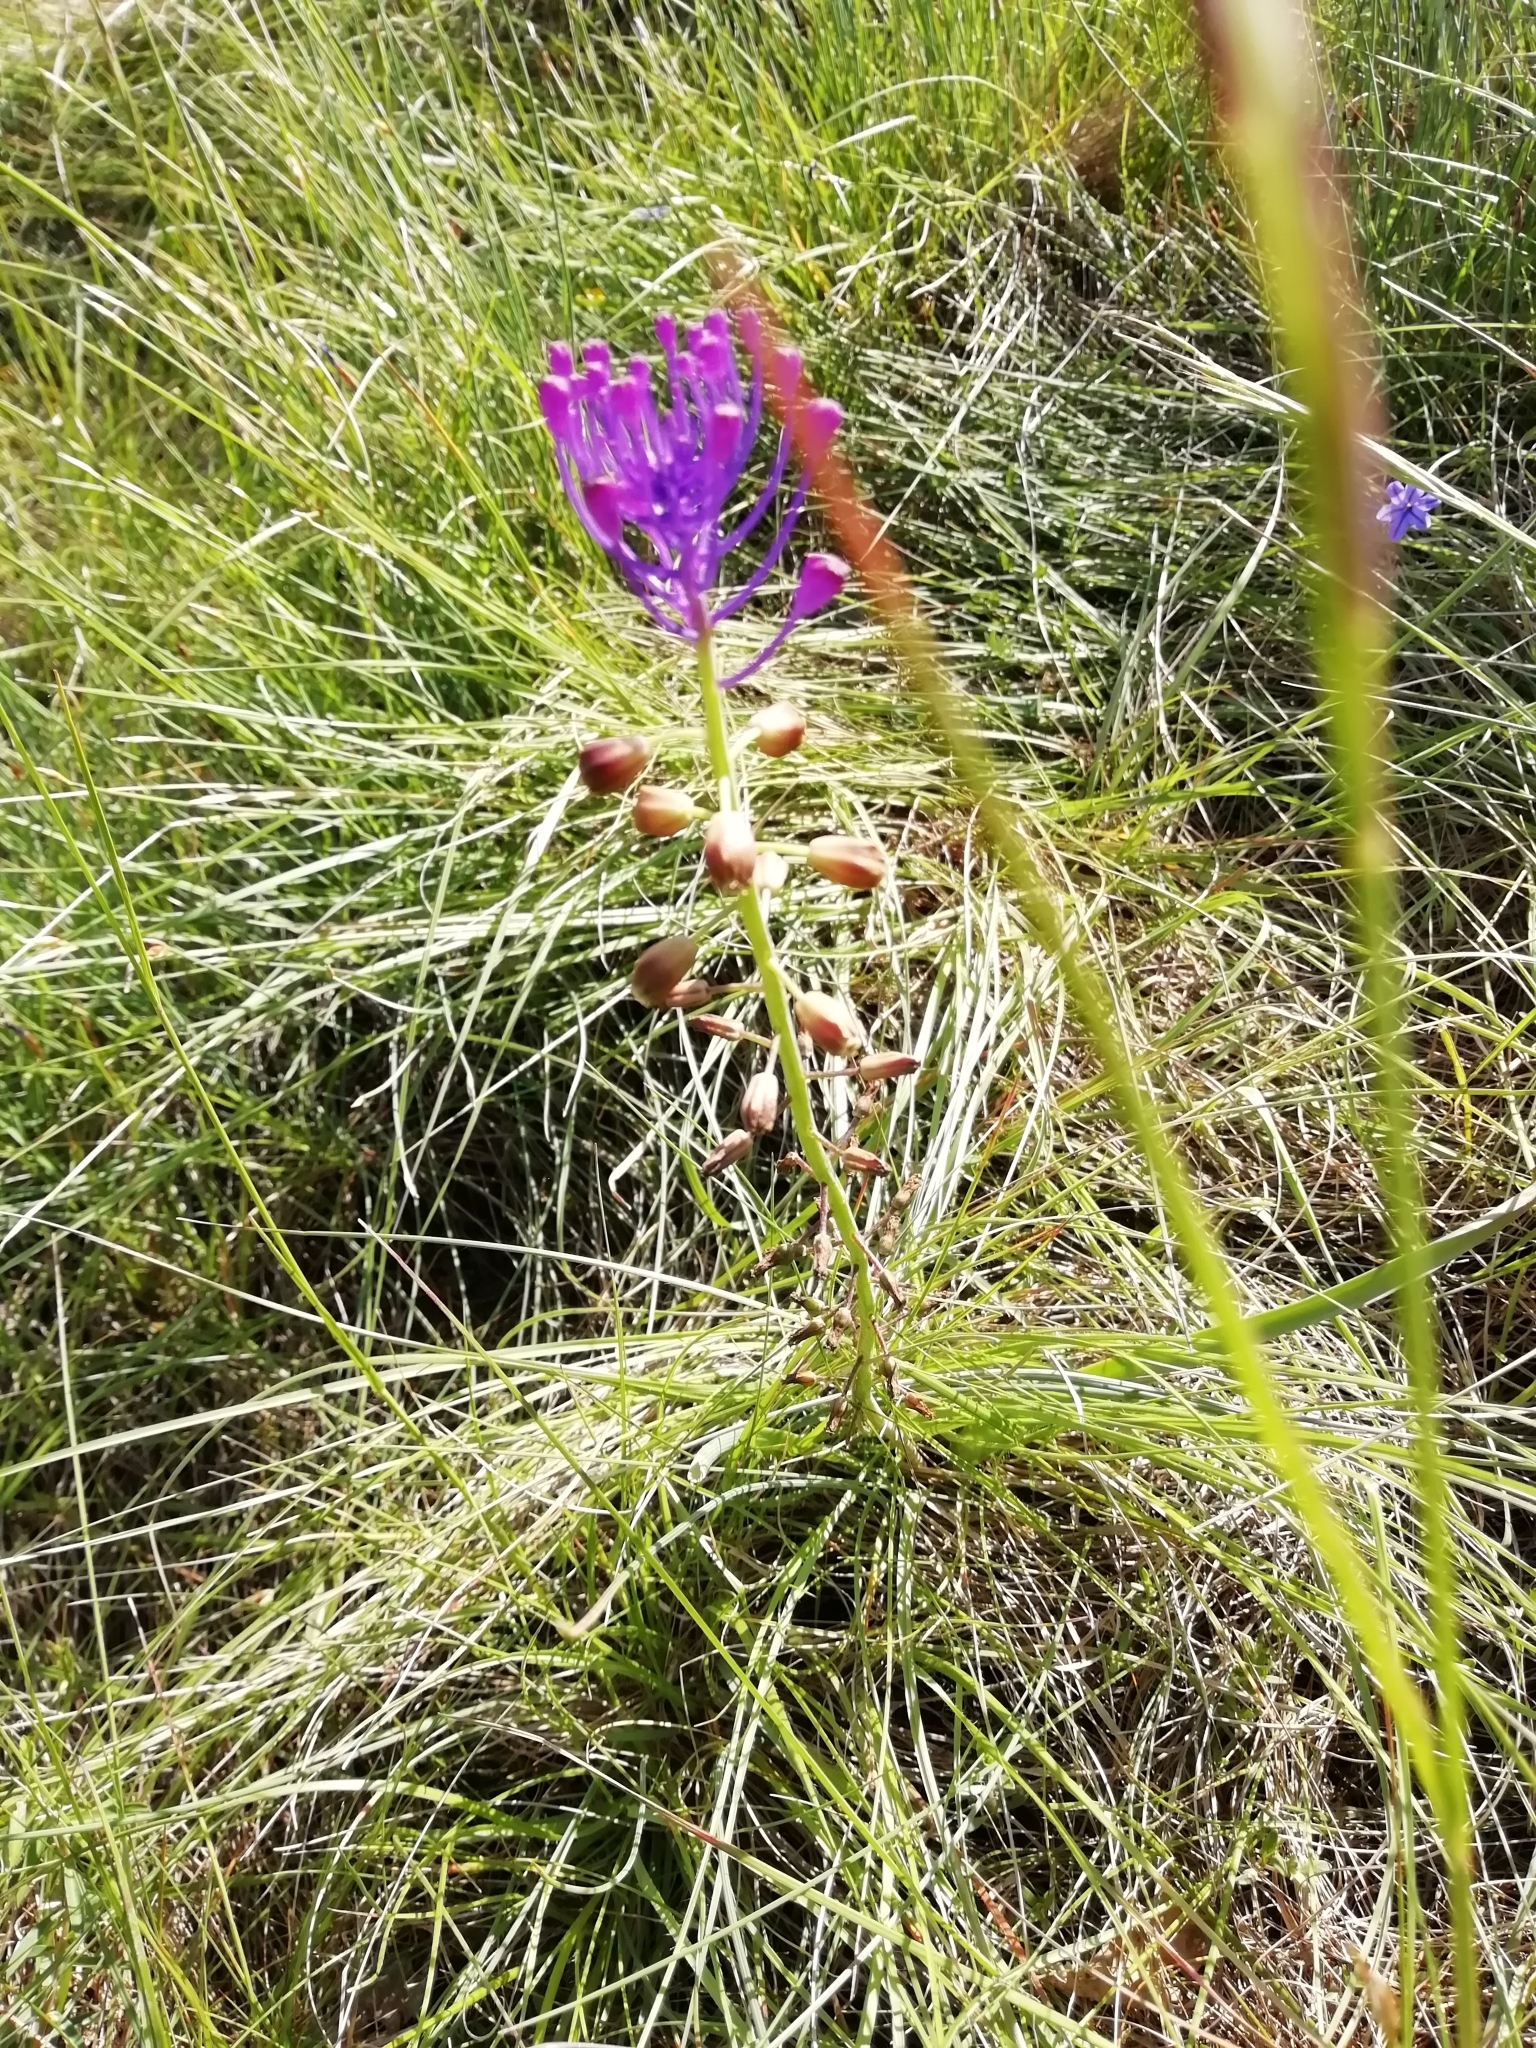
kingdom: Plantae
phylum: Tracheophyta
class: Liliopsida
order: Asparagales
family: Asparagaceae
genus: Muscari
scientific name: Muscari comosum
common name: Tassel hyacinth
